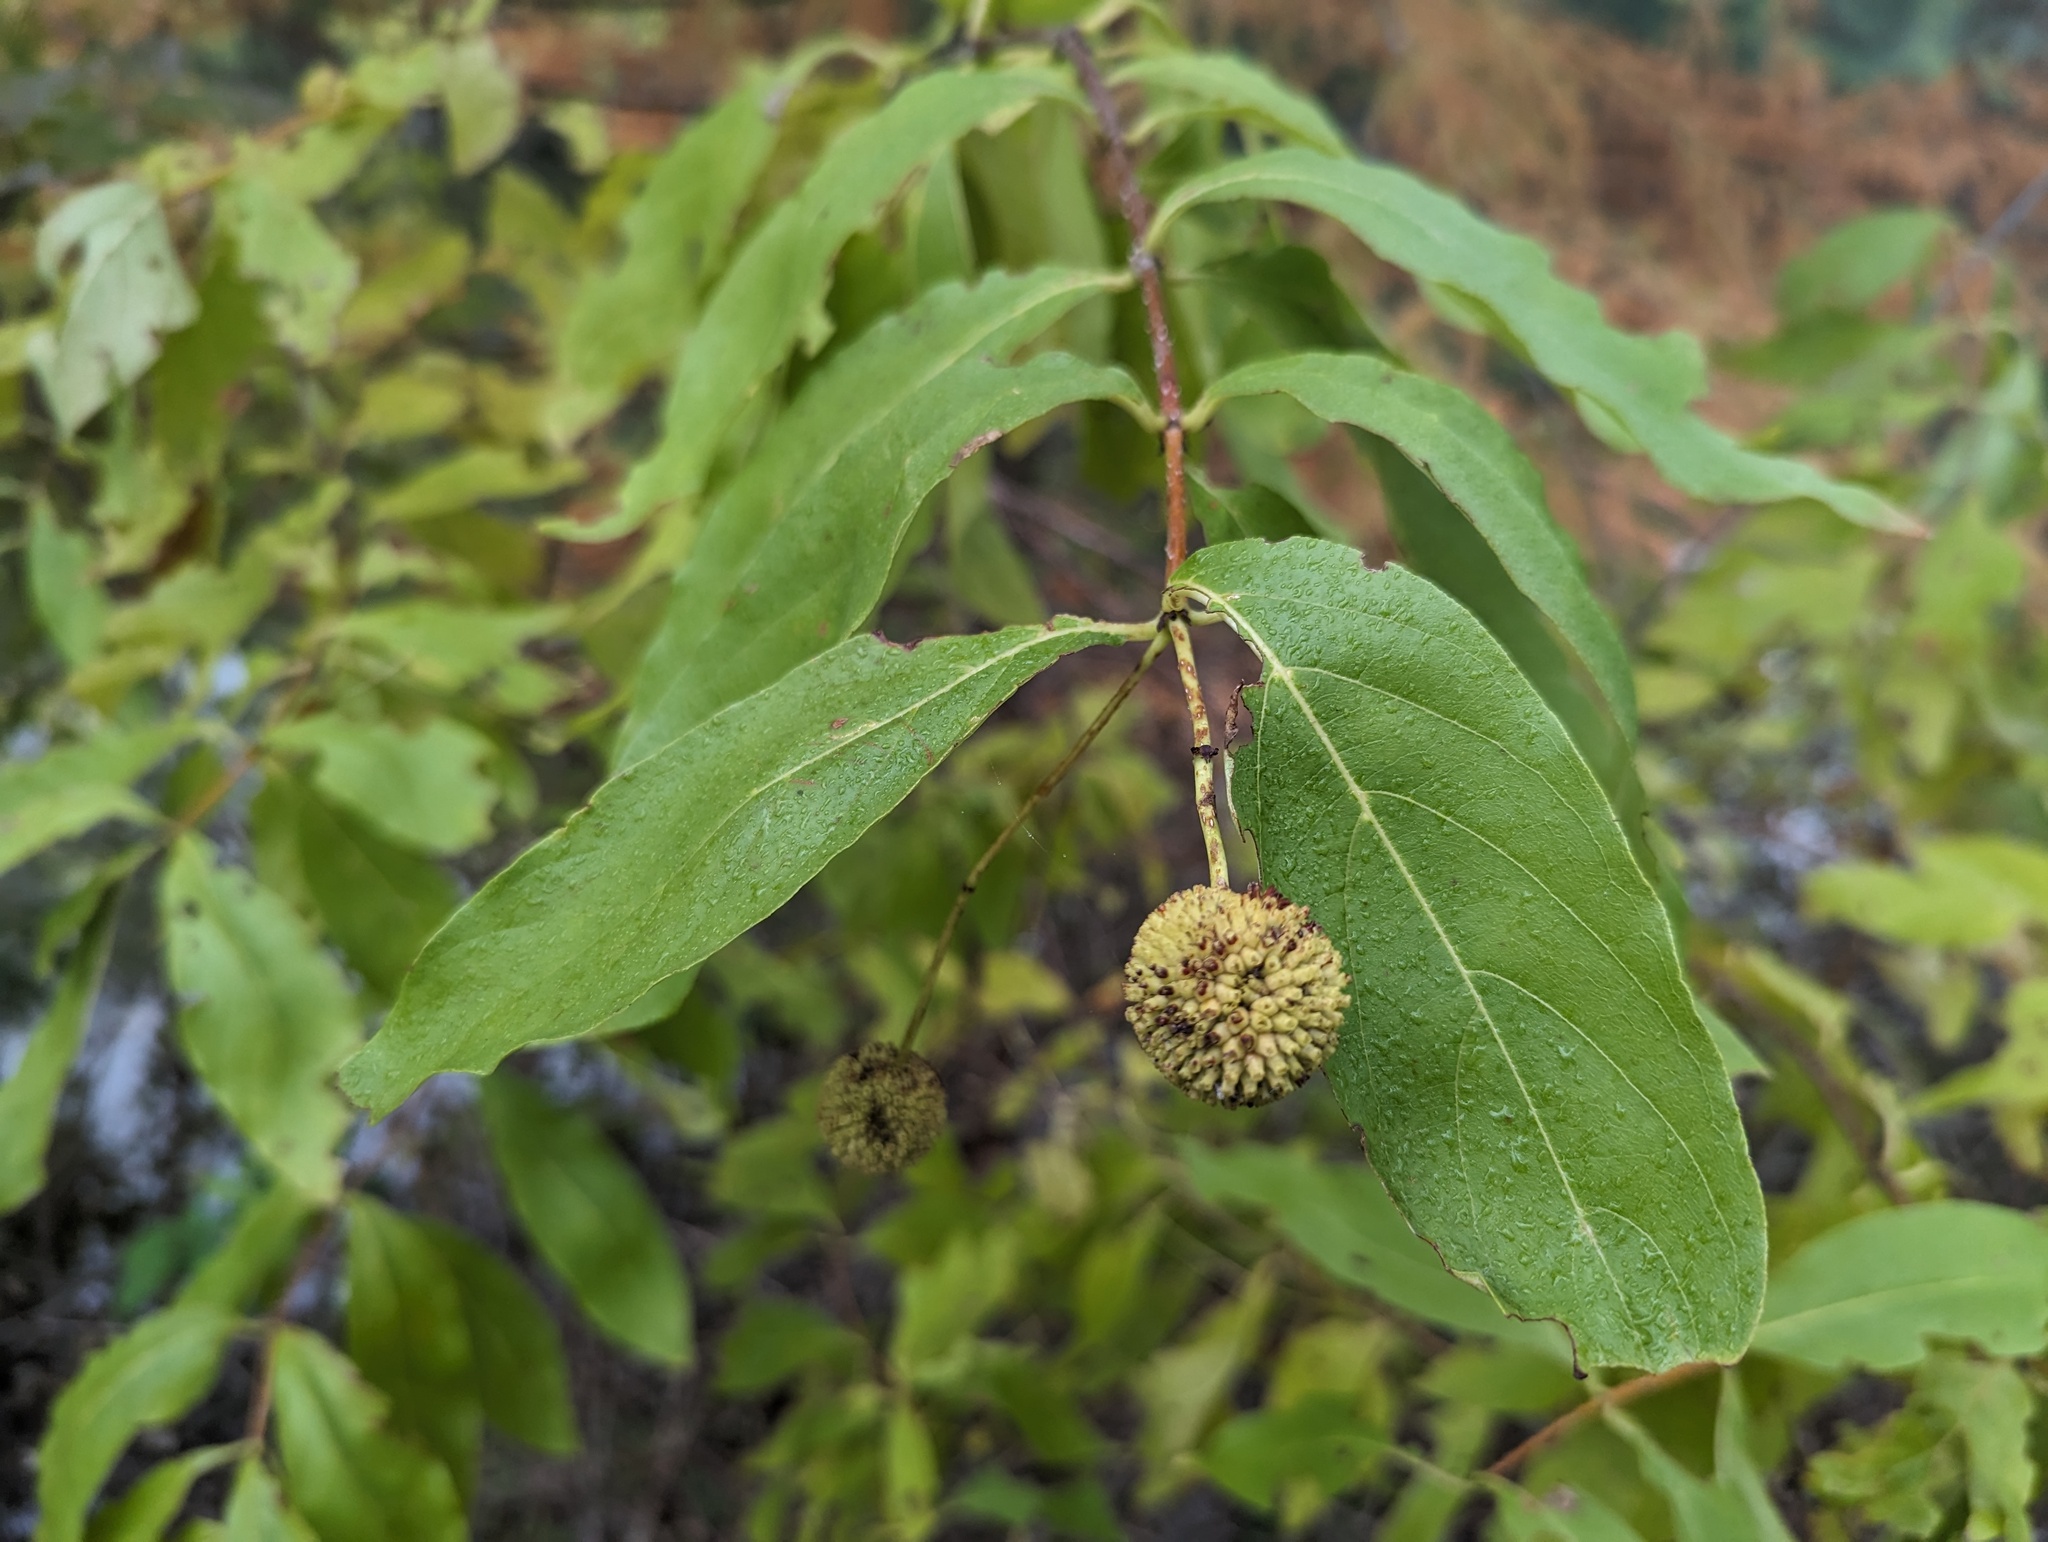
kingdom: Plantae
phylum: Tracheophyta
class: Magnoliopsida
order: Gentianales
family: Rubiaceae
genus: Cephalanthus
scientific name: Cephalanthus occidentalis
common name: Button-willow
